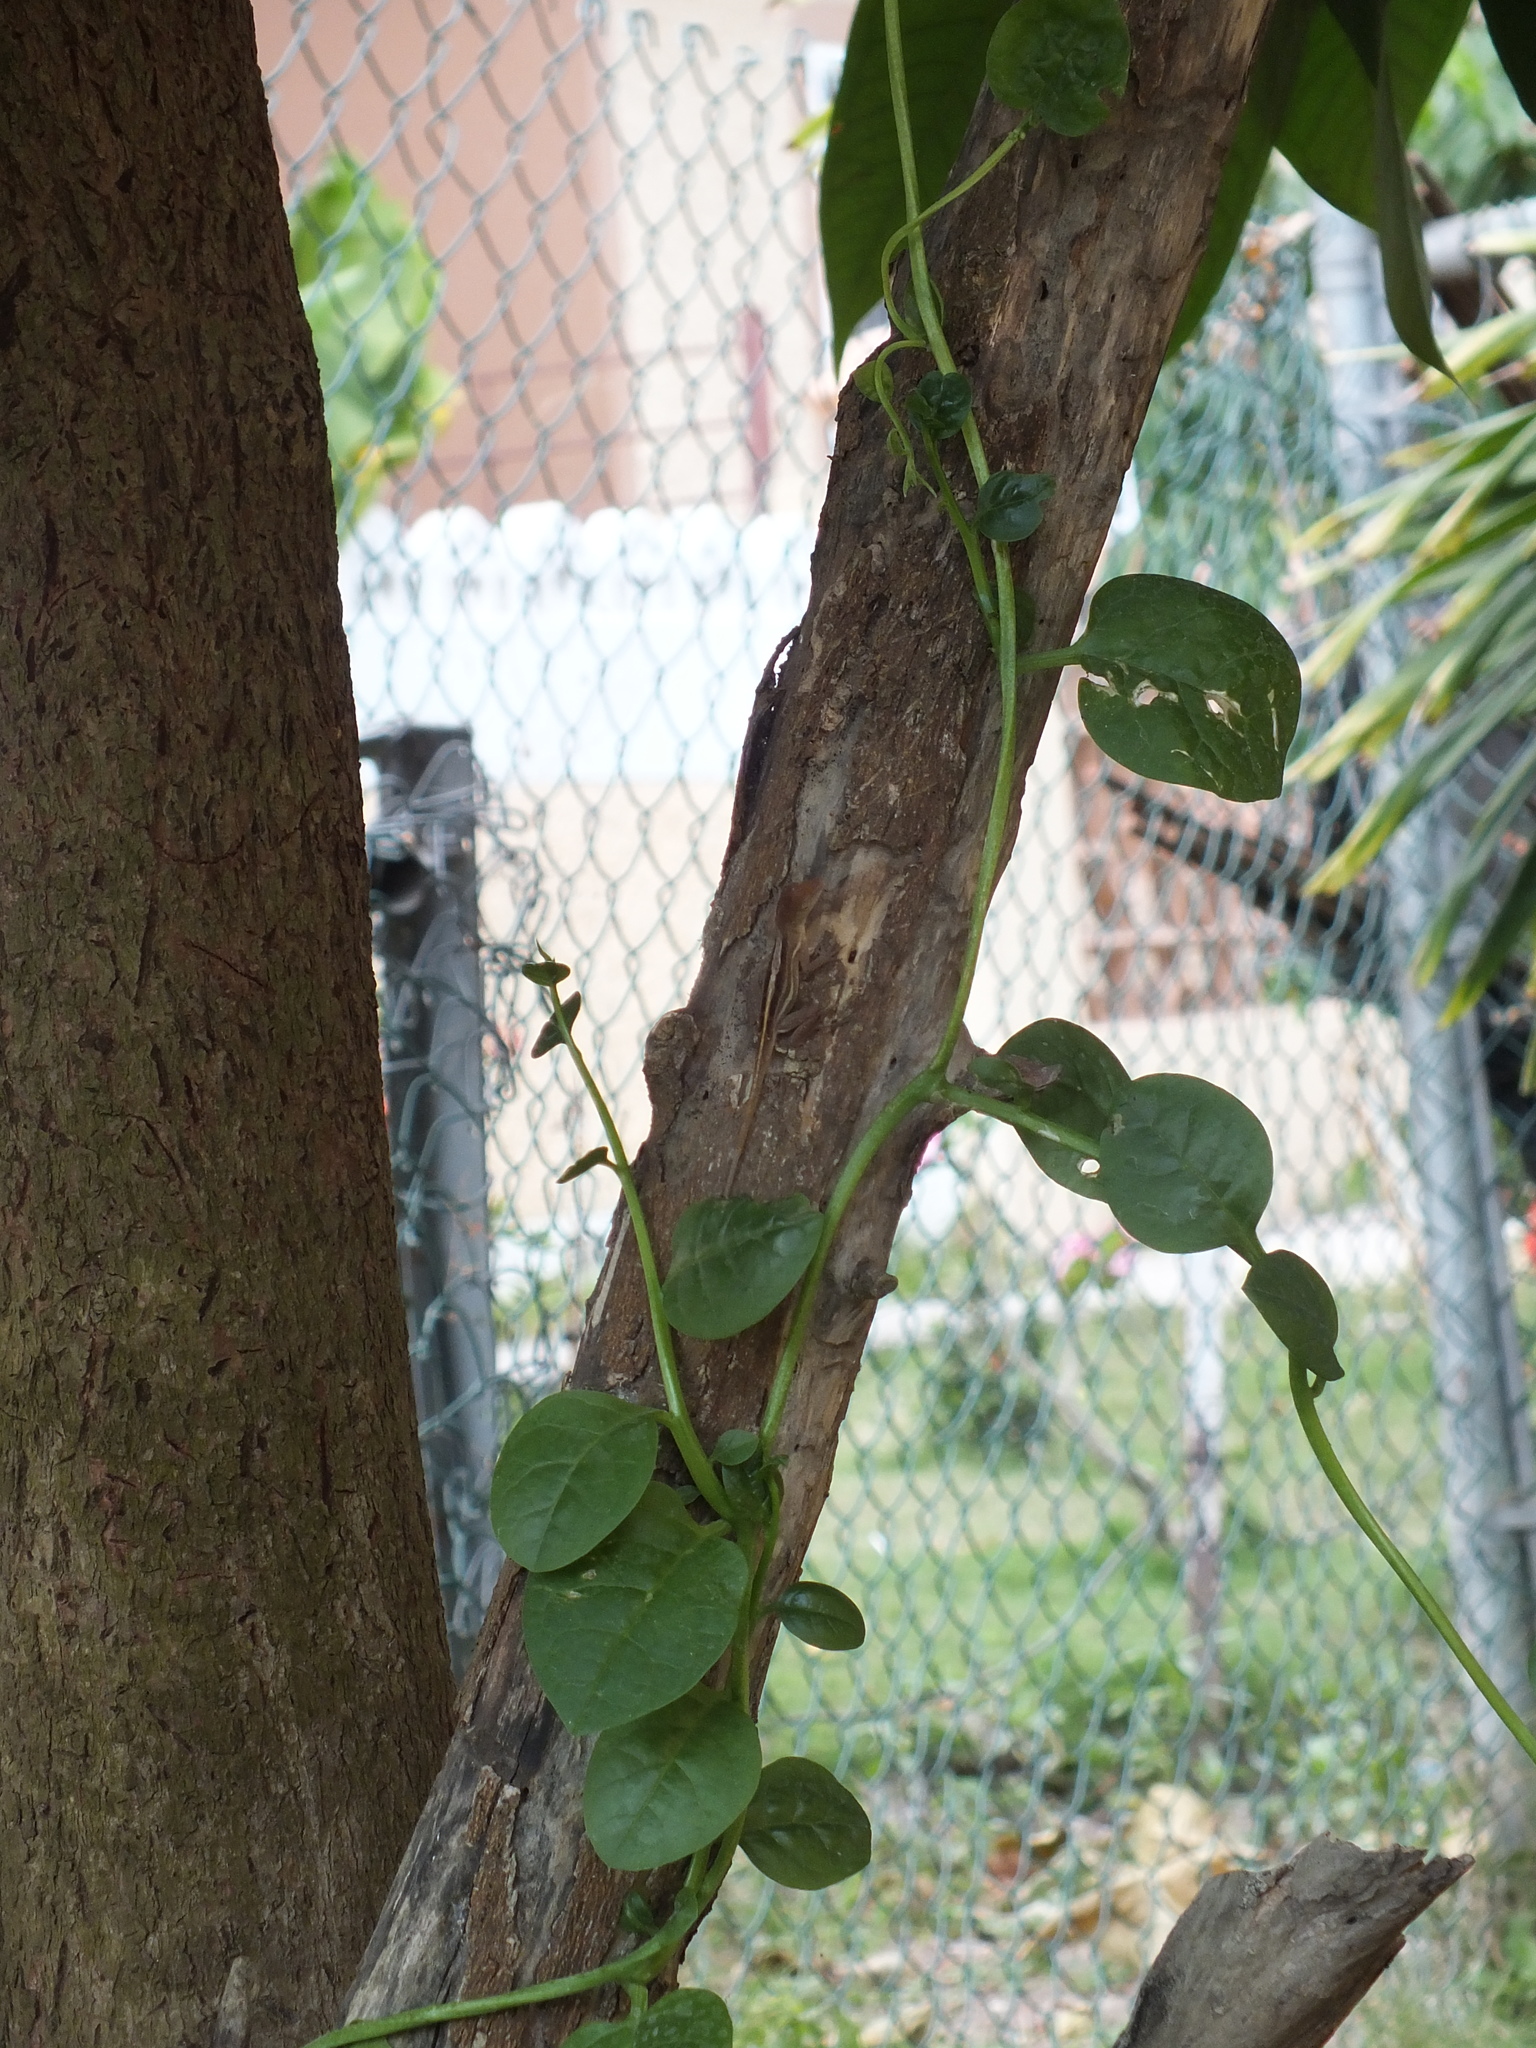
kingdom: Animalia
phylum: Chordata
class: Squamata
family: Dactyloidae
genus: Anolis
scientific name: Anolis lineatopus
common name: Stripefoot anole
